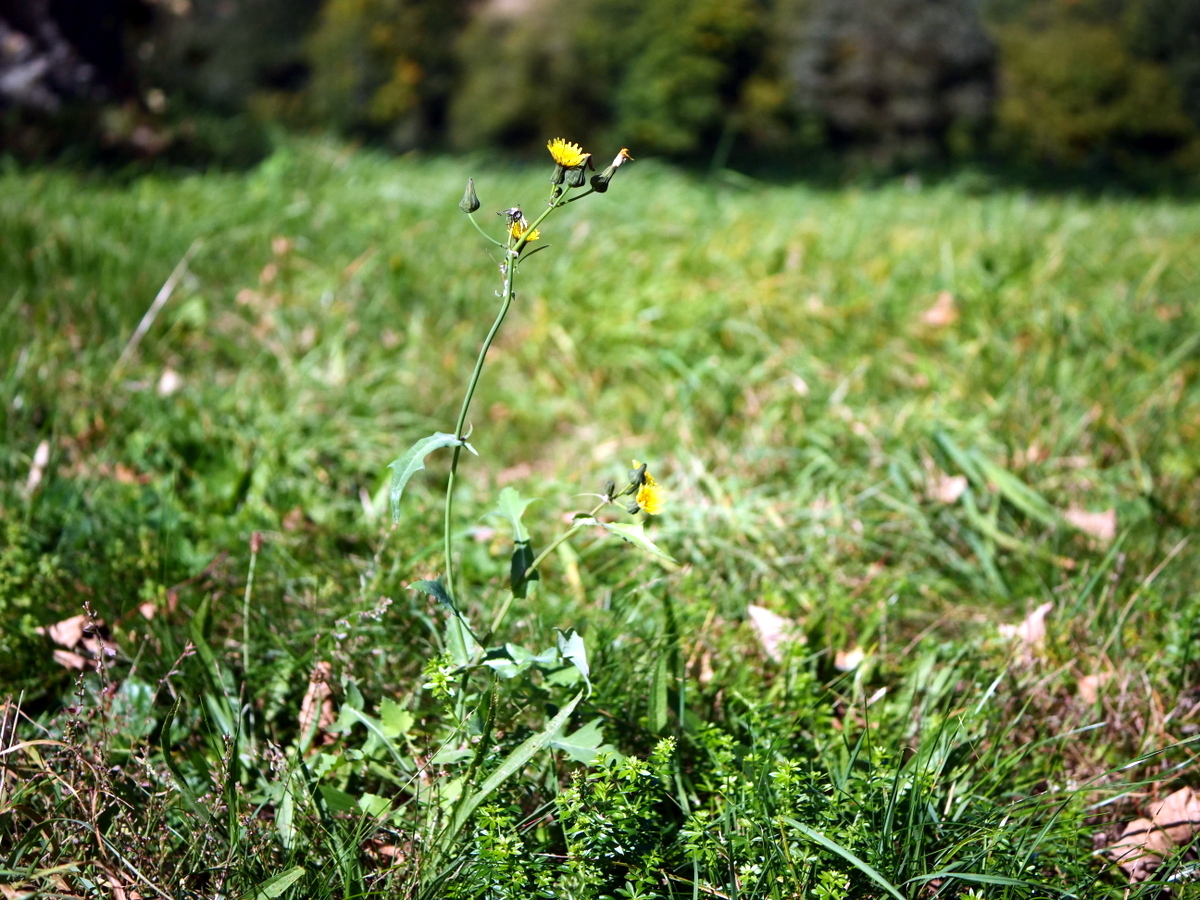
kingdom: Plantae
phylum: Tracheophyta
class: Magnoliopsida
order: Asterales
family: Asteraceae
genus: Sonchus
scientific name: Sonchus oleraceus
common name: Common sowthistle
